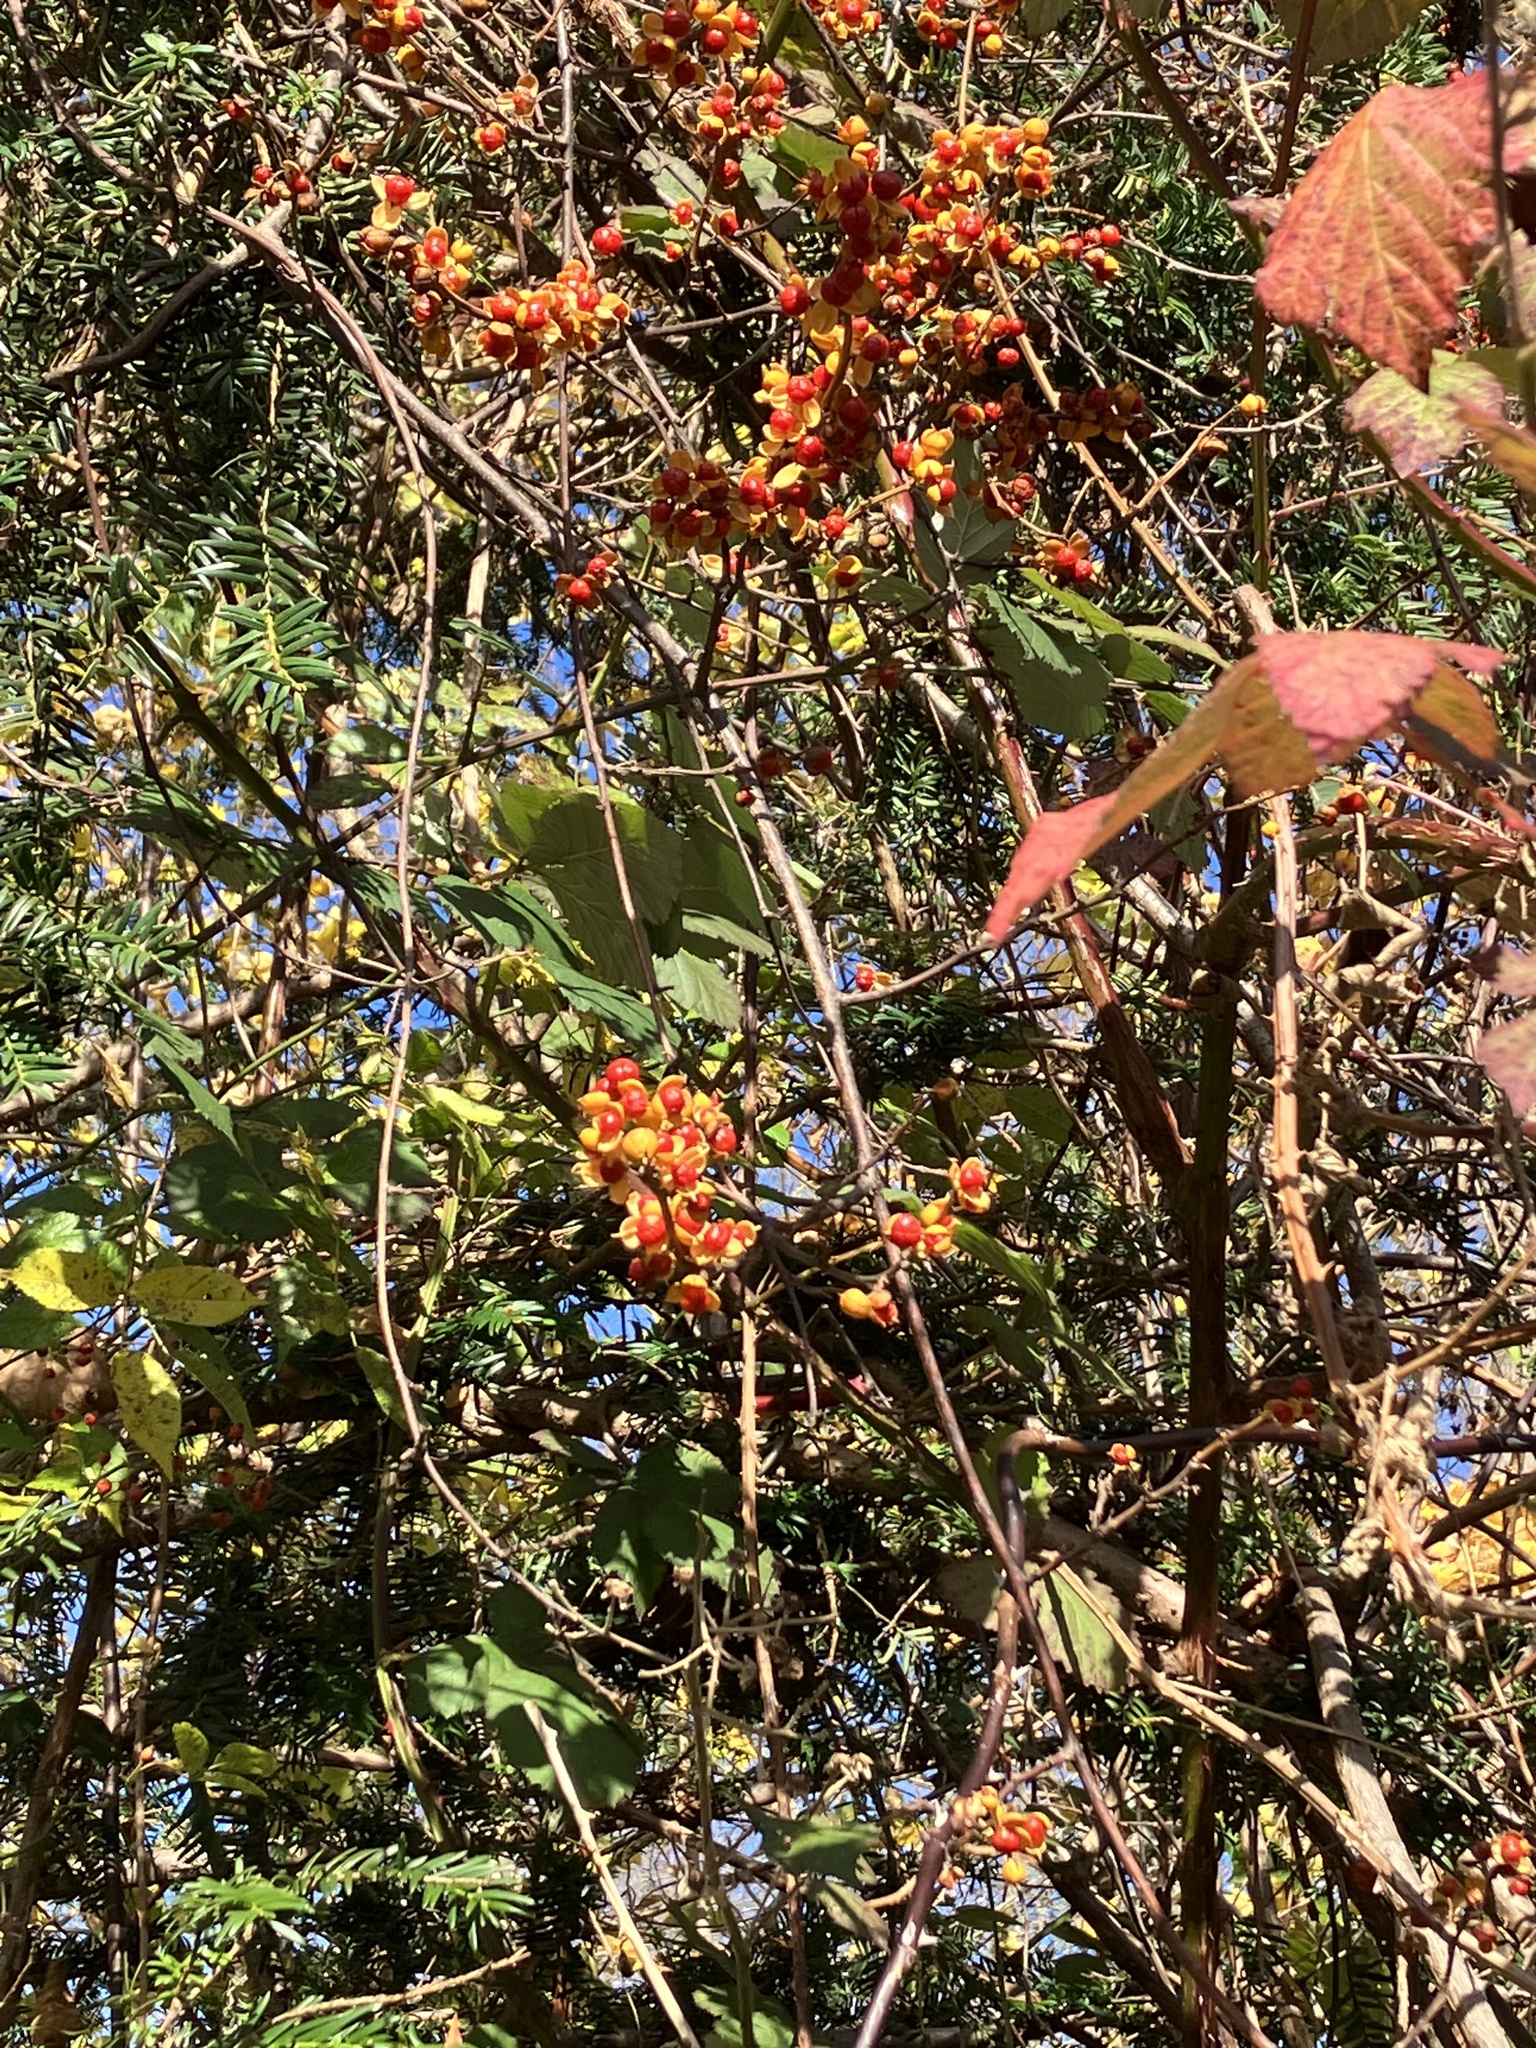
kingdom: Plantae
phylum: Tracheophyta
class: Magnoliopsida
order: Celastrales
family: Celastraceae
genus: Celastrus
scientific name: Celastrus orbiculatus
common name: Oriental bittersweet
